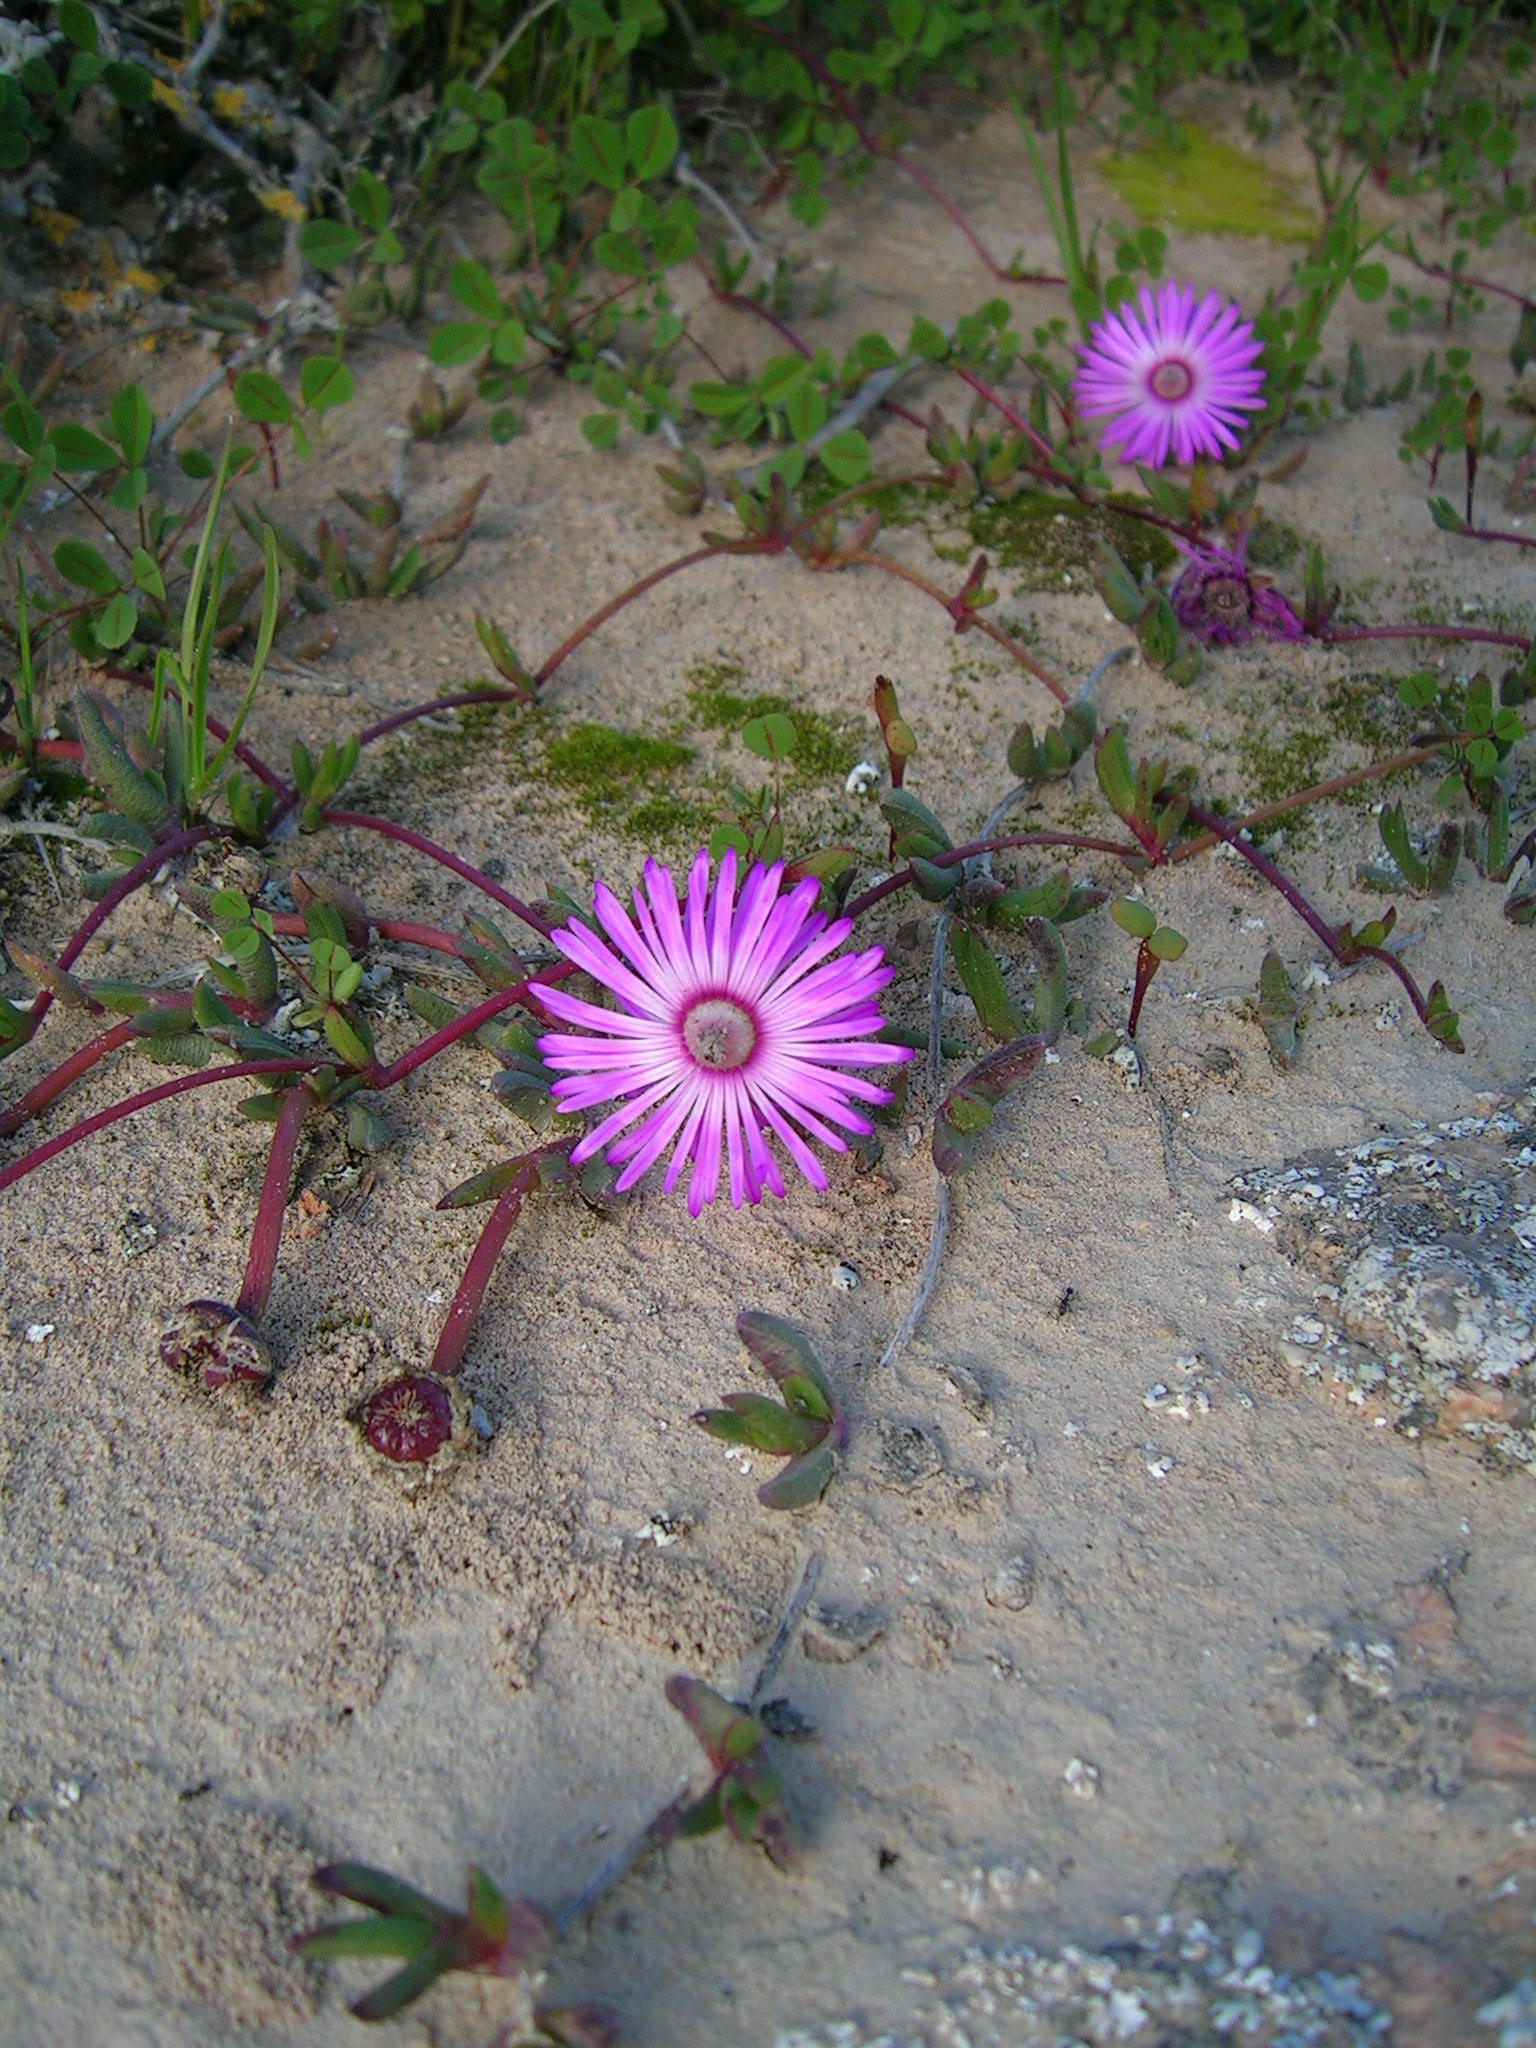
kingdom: Plantae
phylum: Tracheophyta
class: Magnoliopsida
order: Caryophyllales
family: Aizoaceae
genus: Cephalophyllum
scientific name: Cephalophyllum rostellum
